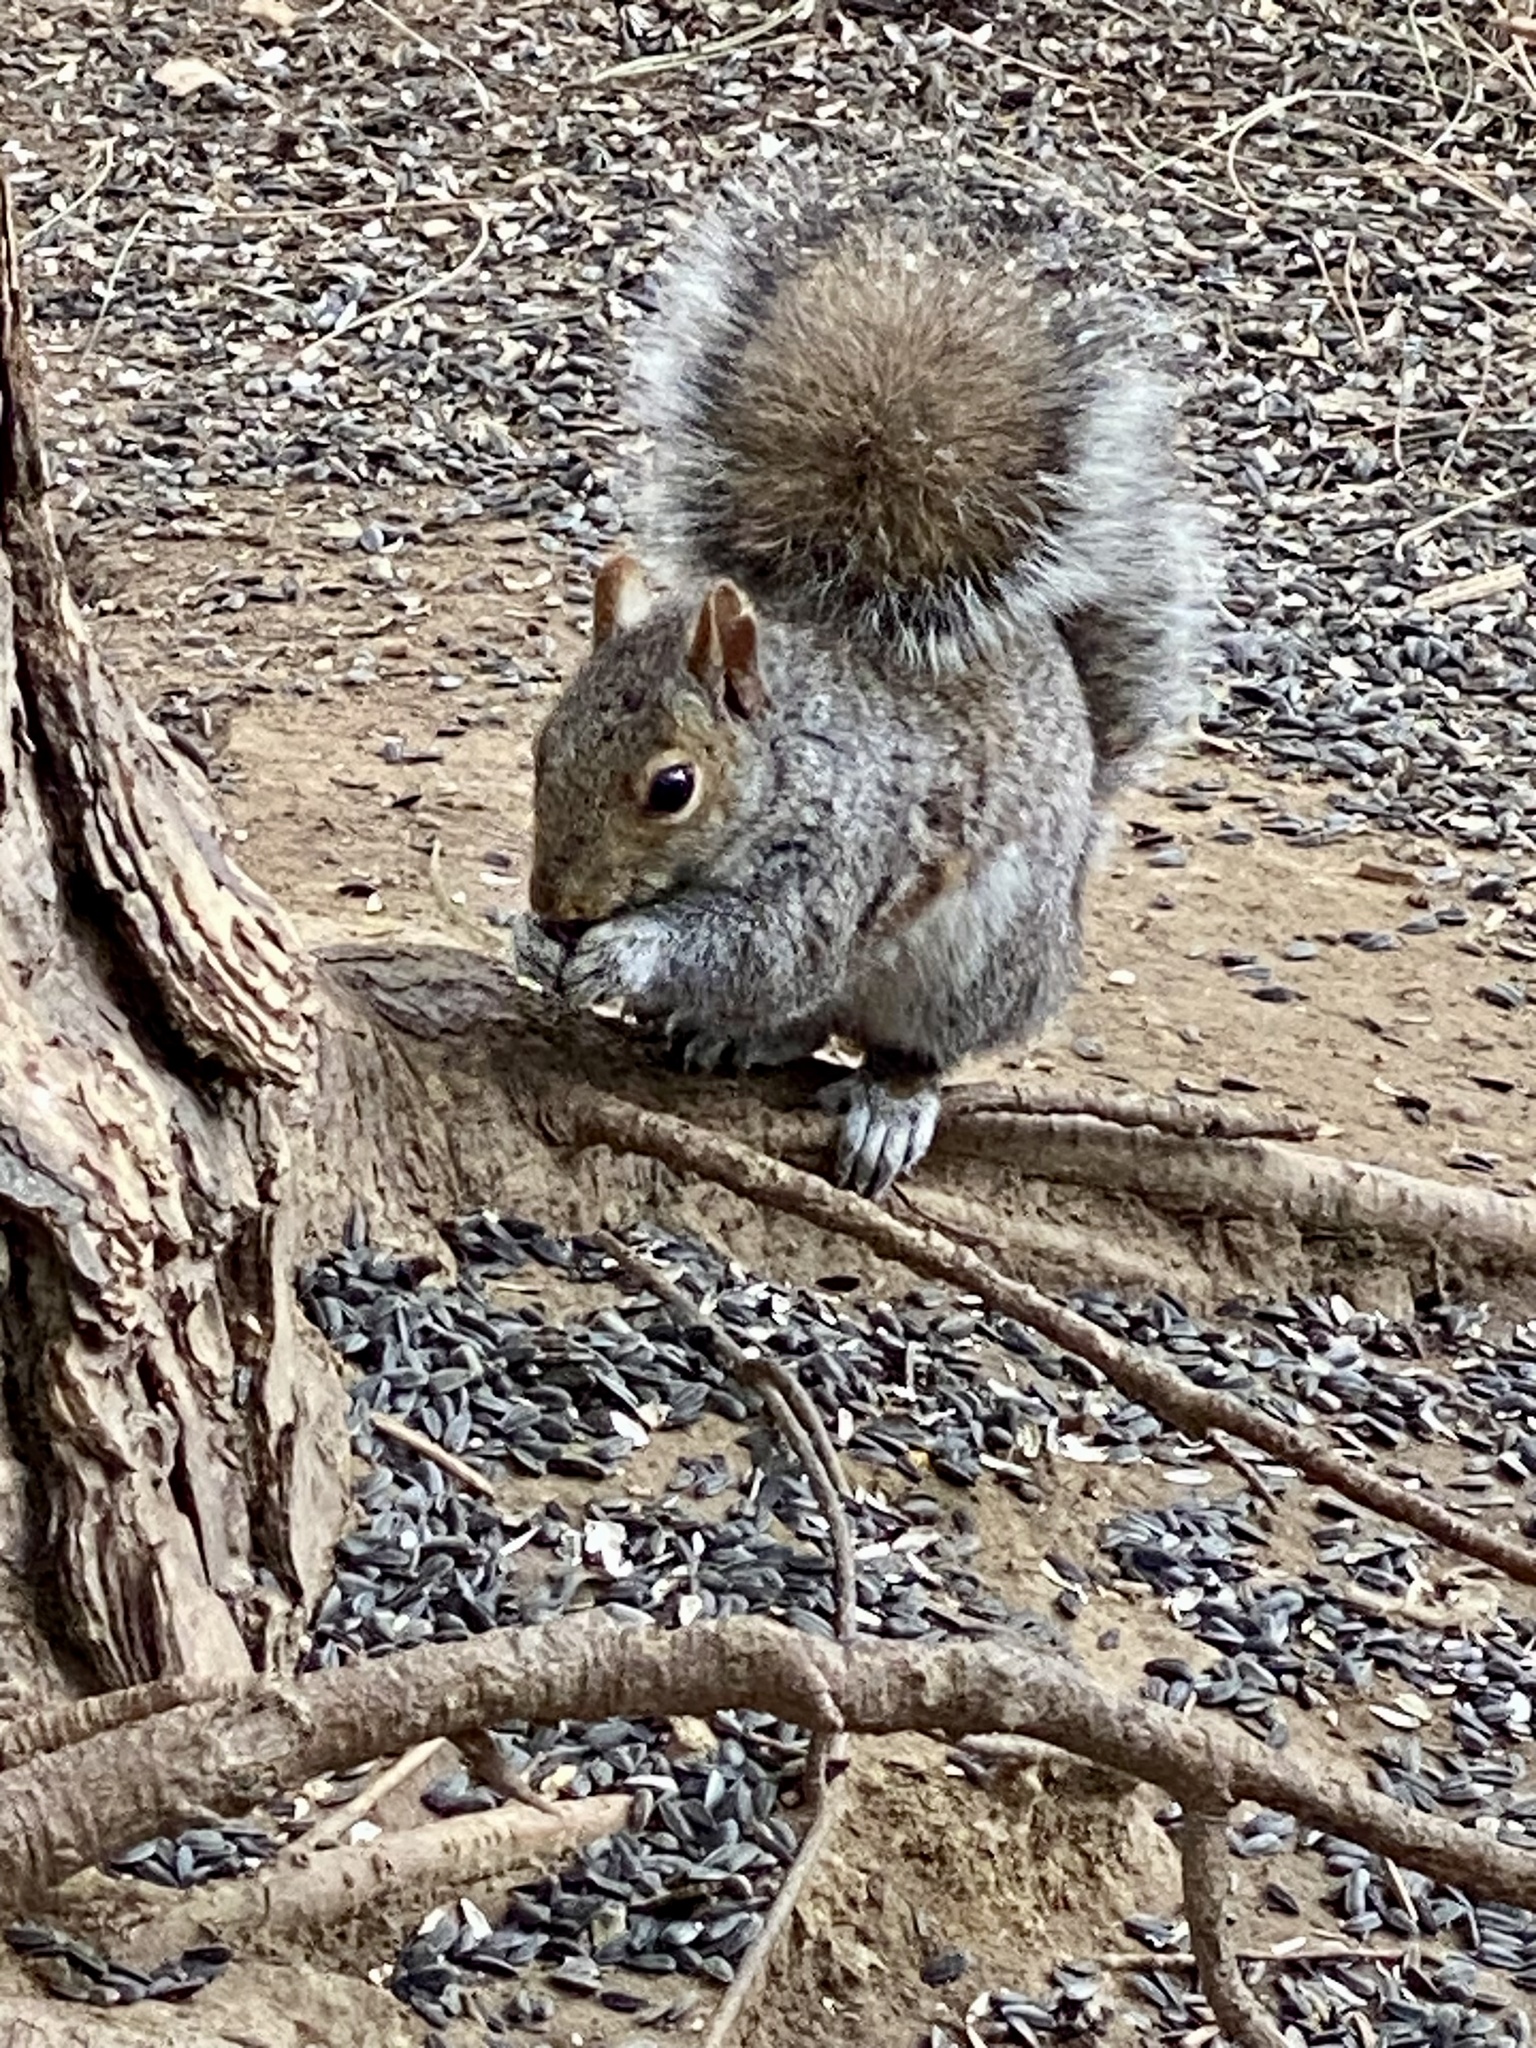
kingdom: Animalia
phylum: Chordata
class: Mammalia
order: Rodentia
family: Sciuridae
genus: Sciurus
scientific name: Sciurus carolinensis
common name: Eastern gray squirrel
